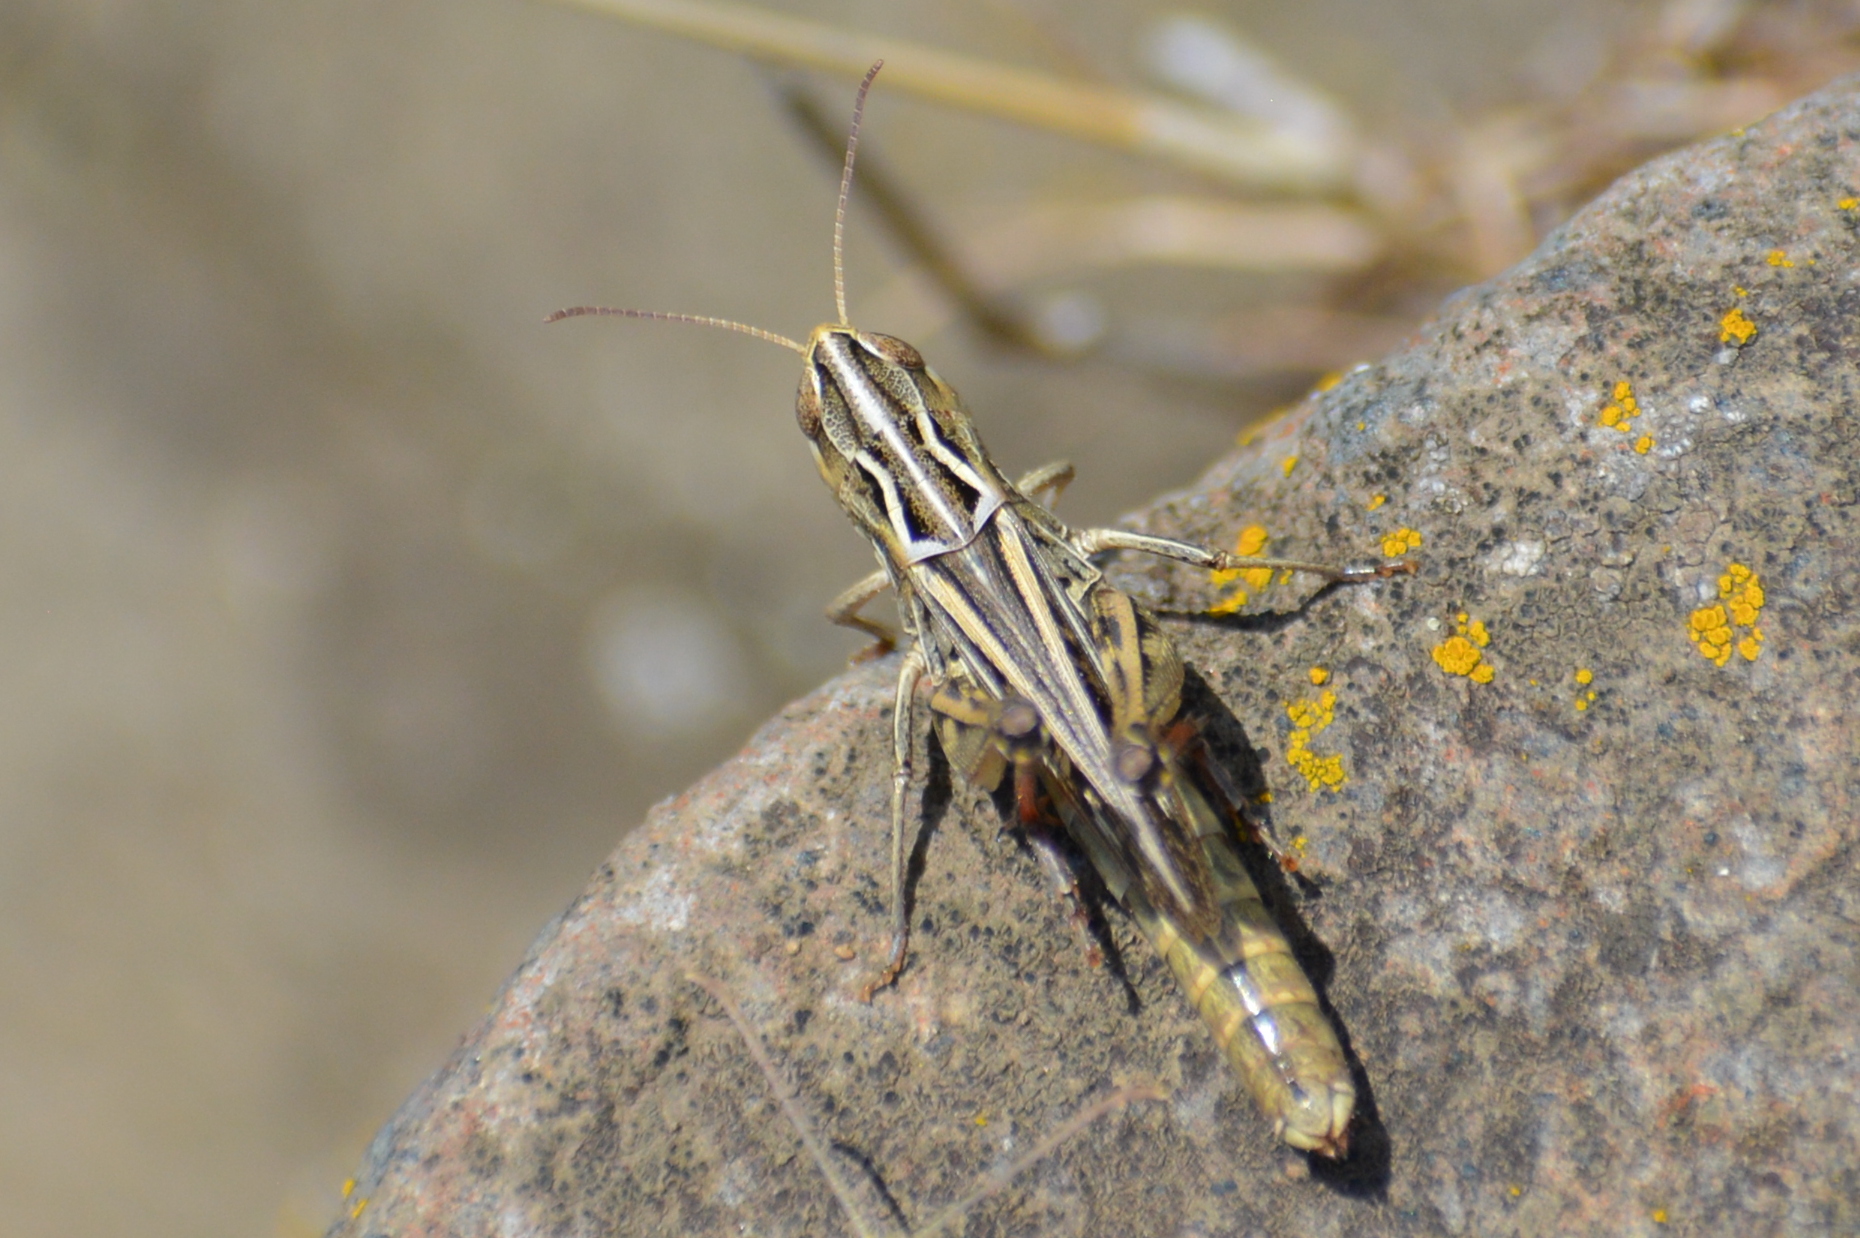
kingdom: Animalia
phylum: Arthropoda
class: Insecta
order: Orthoptera
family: Acrididae
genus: Stenobothrus
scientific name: Stenobothrus eurasius
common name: Eurasian toothed grasshopper
